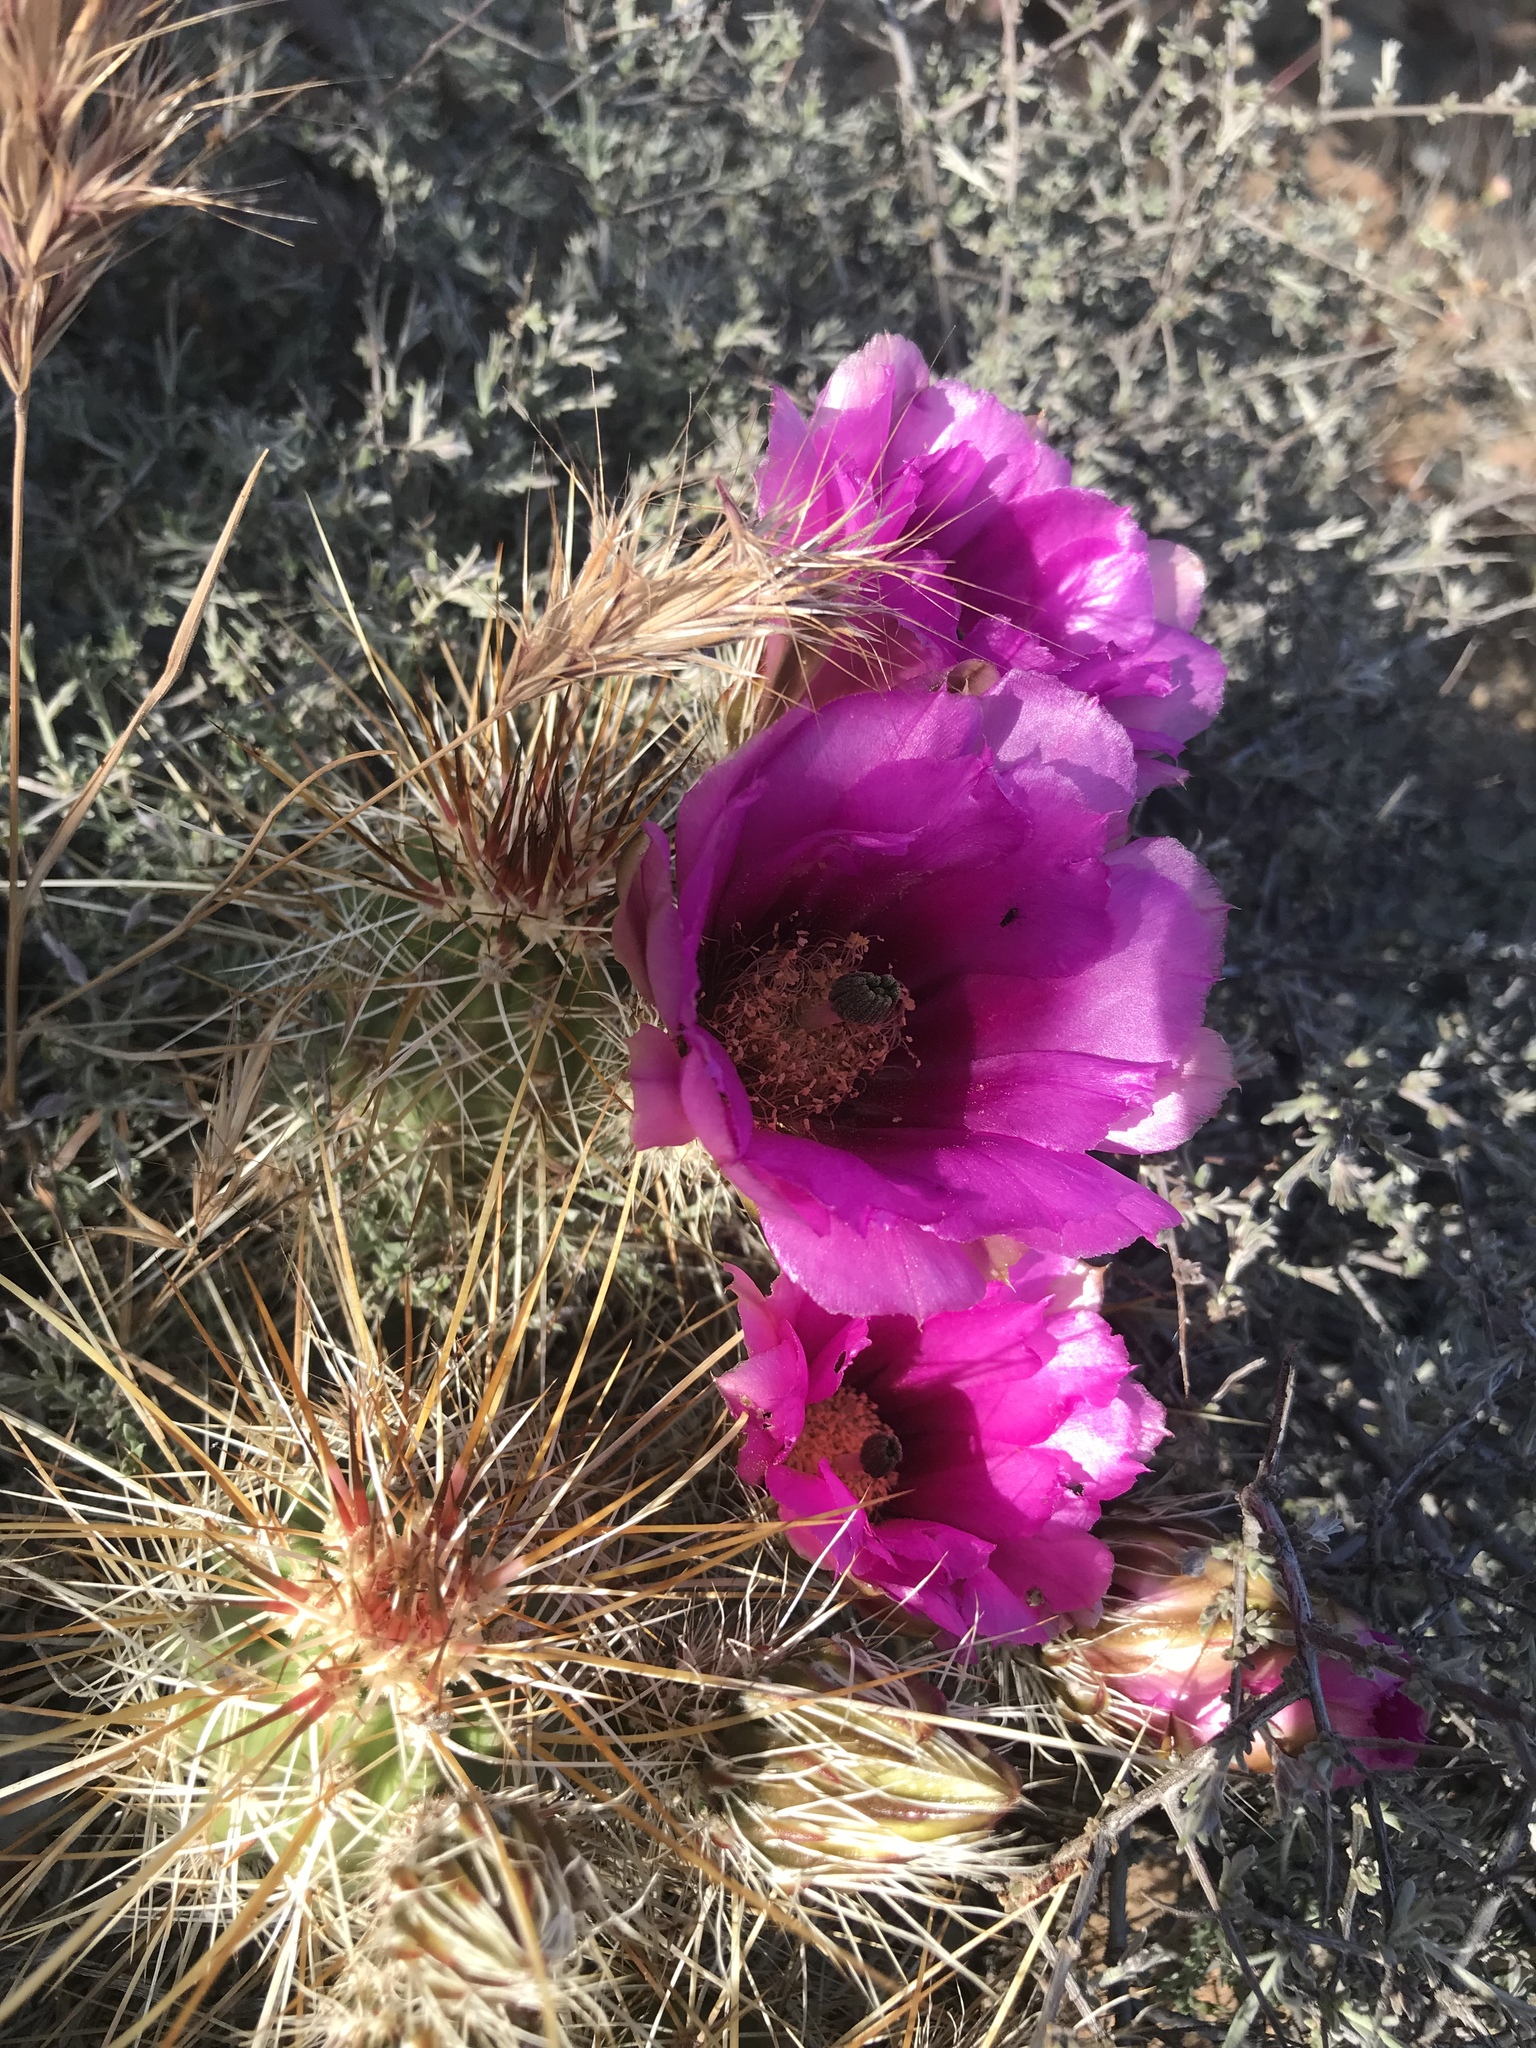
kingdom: Plantae
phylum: Tracheophyta
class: Magnoliopsida
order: Caryophyllales
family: Cactaceae
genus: Echinocereus
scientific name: Echinocereus engelmannii
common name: Engelmann's hedgehog cactus
